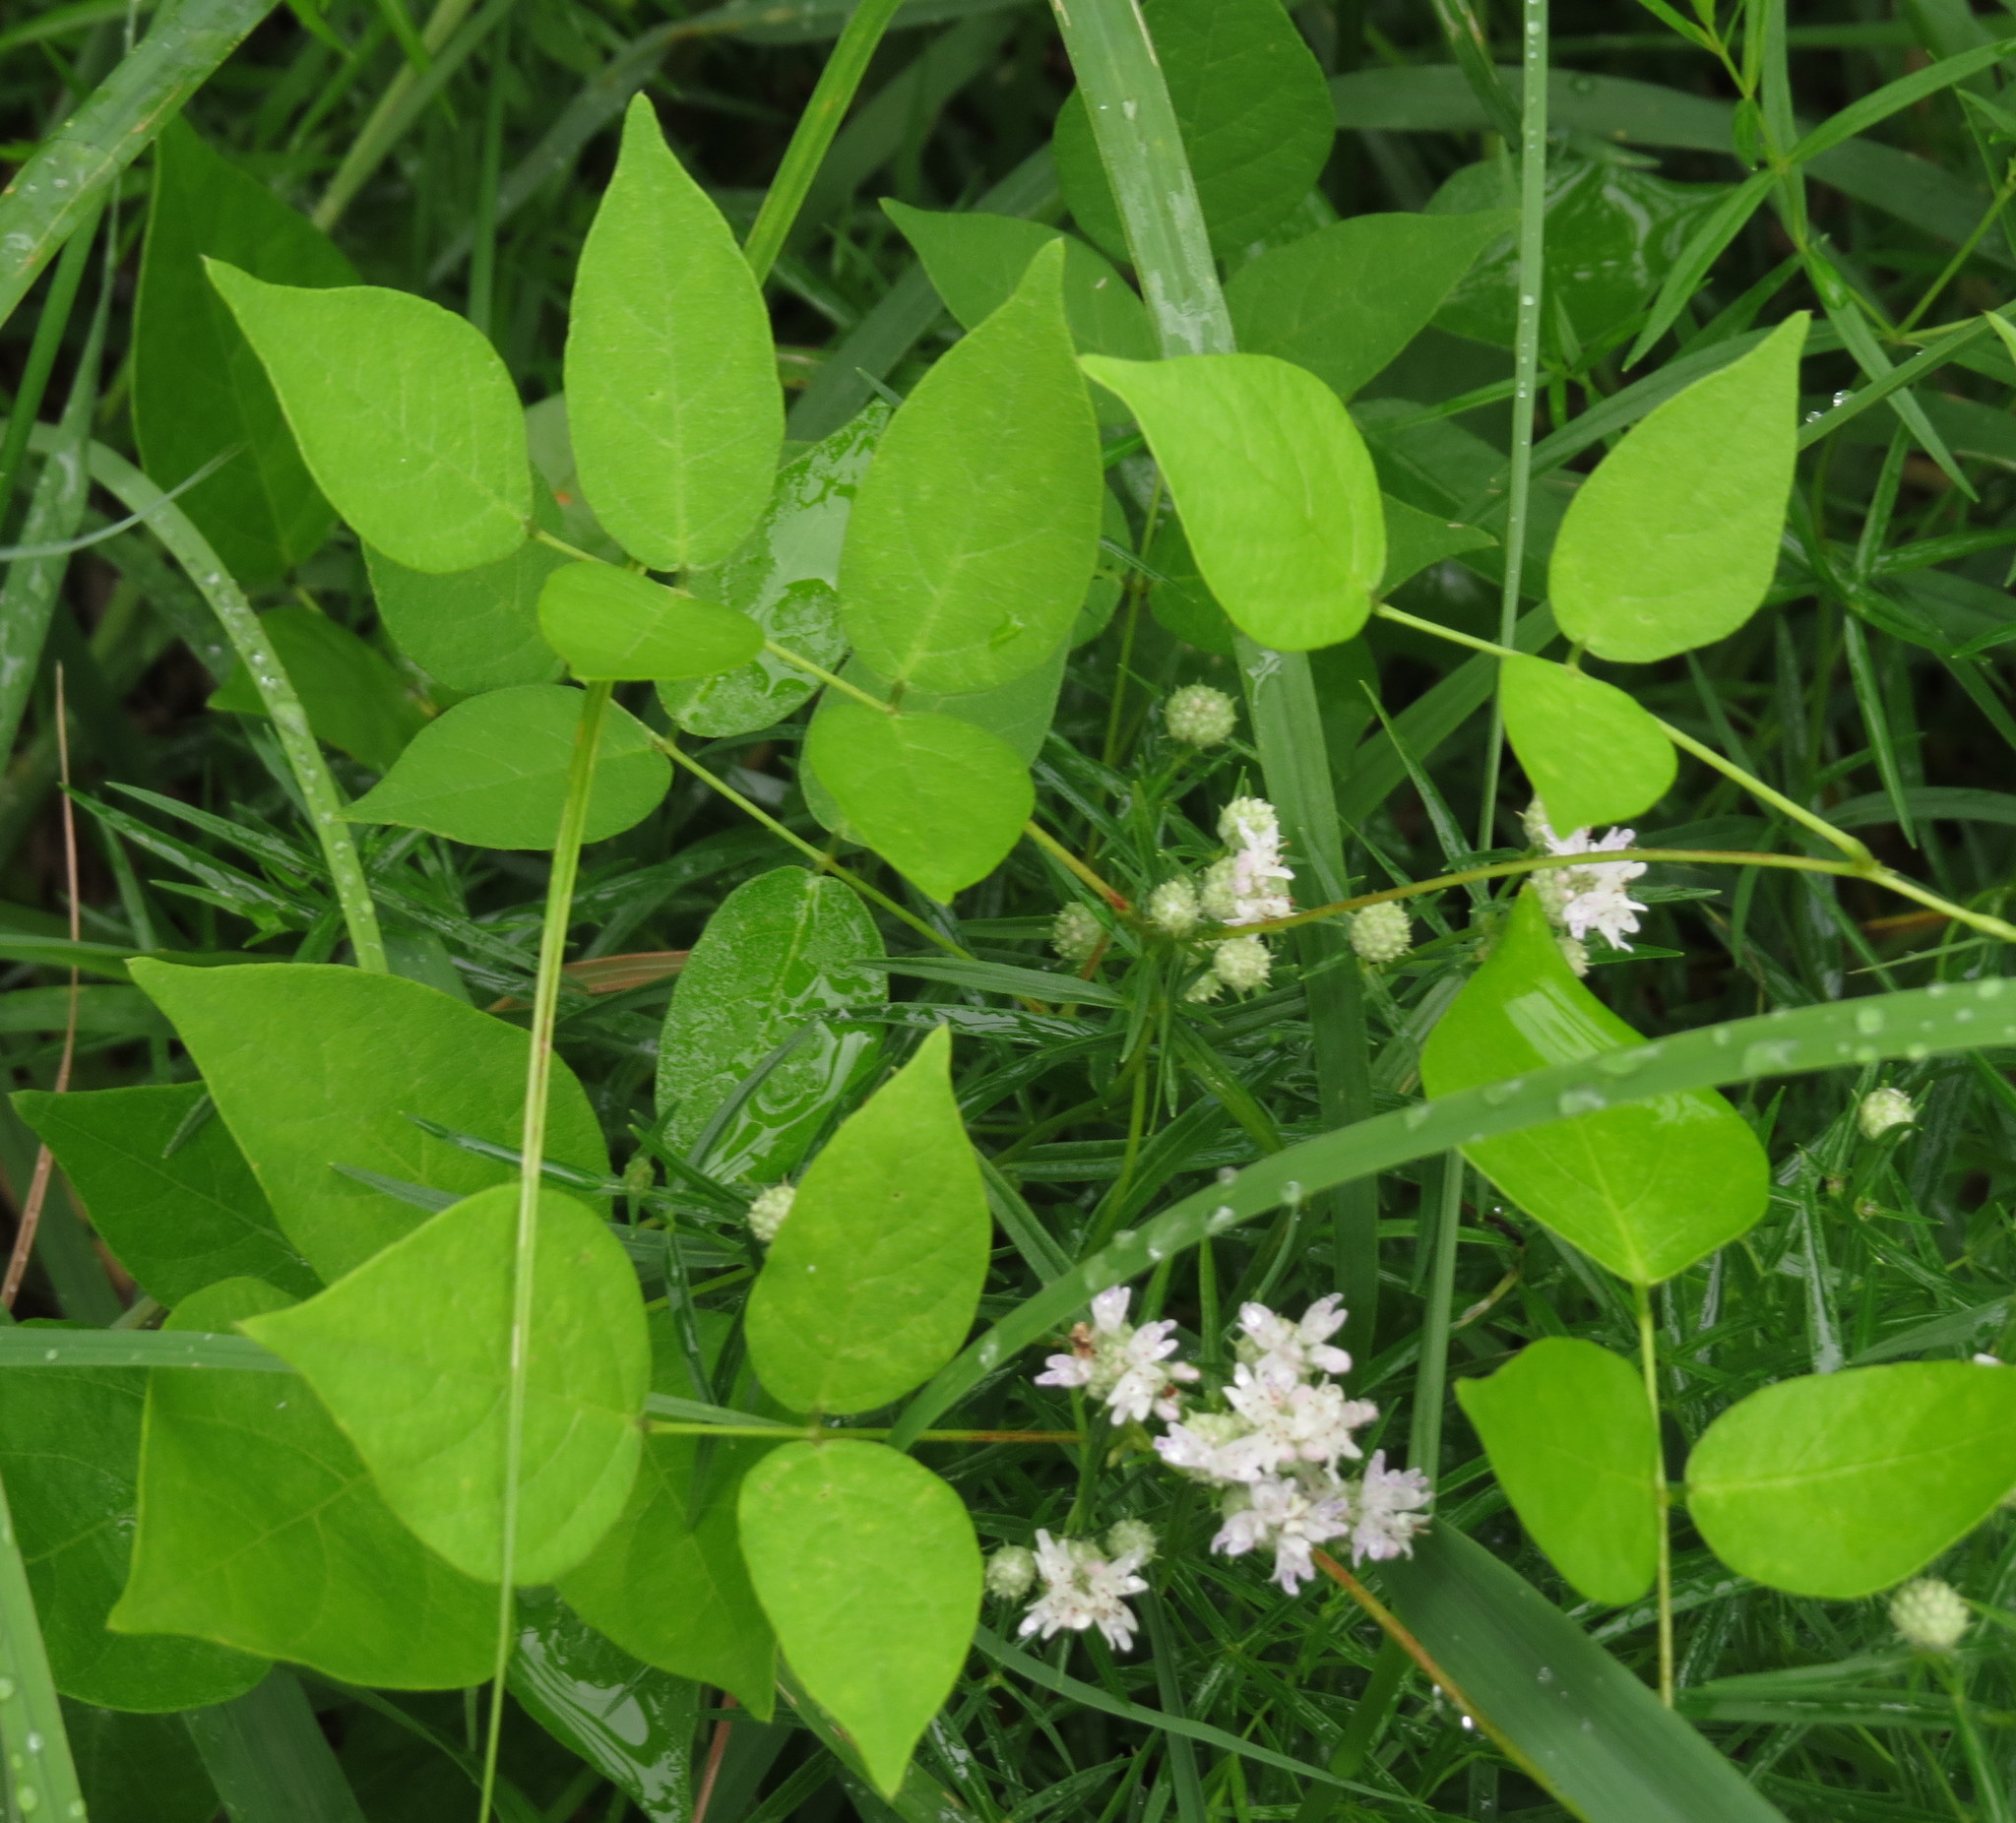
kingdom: Plantae
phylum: Tracheophyta
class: Magnoliopsida
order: Fabales
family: Fabaceae
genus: Apios
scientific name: Apios americana
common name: American potato-bean
